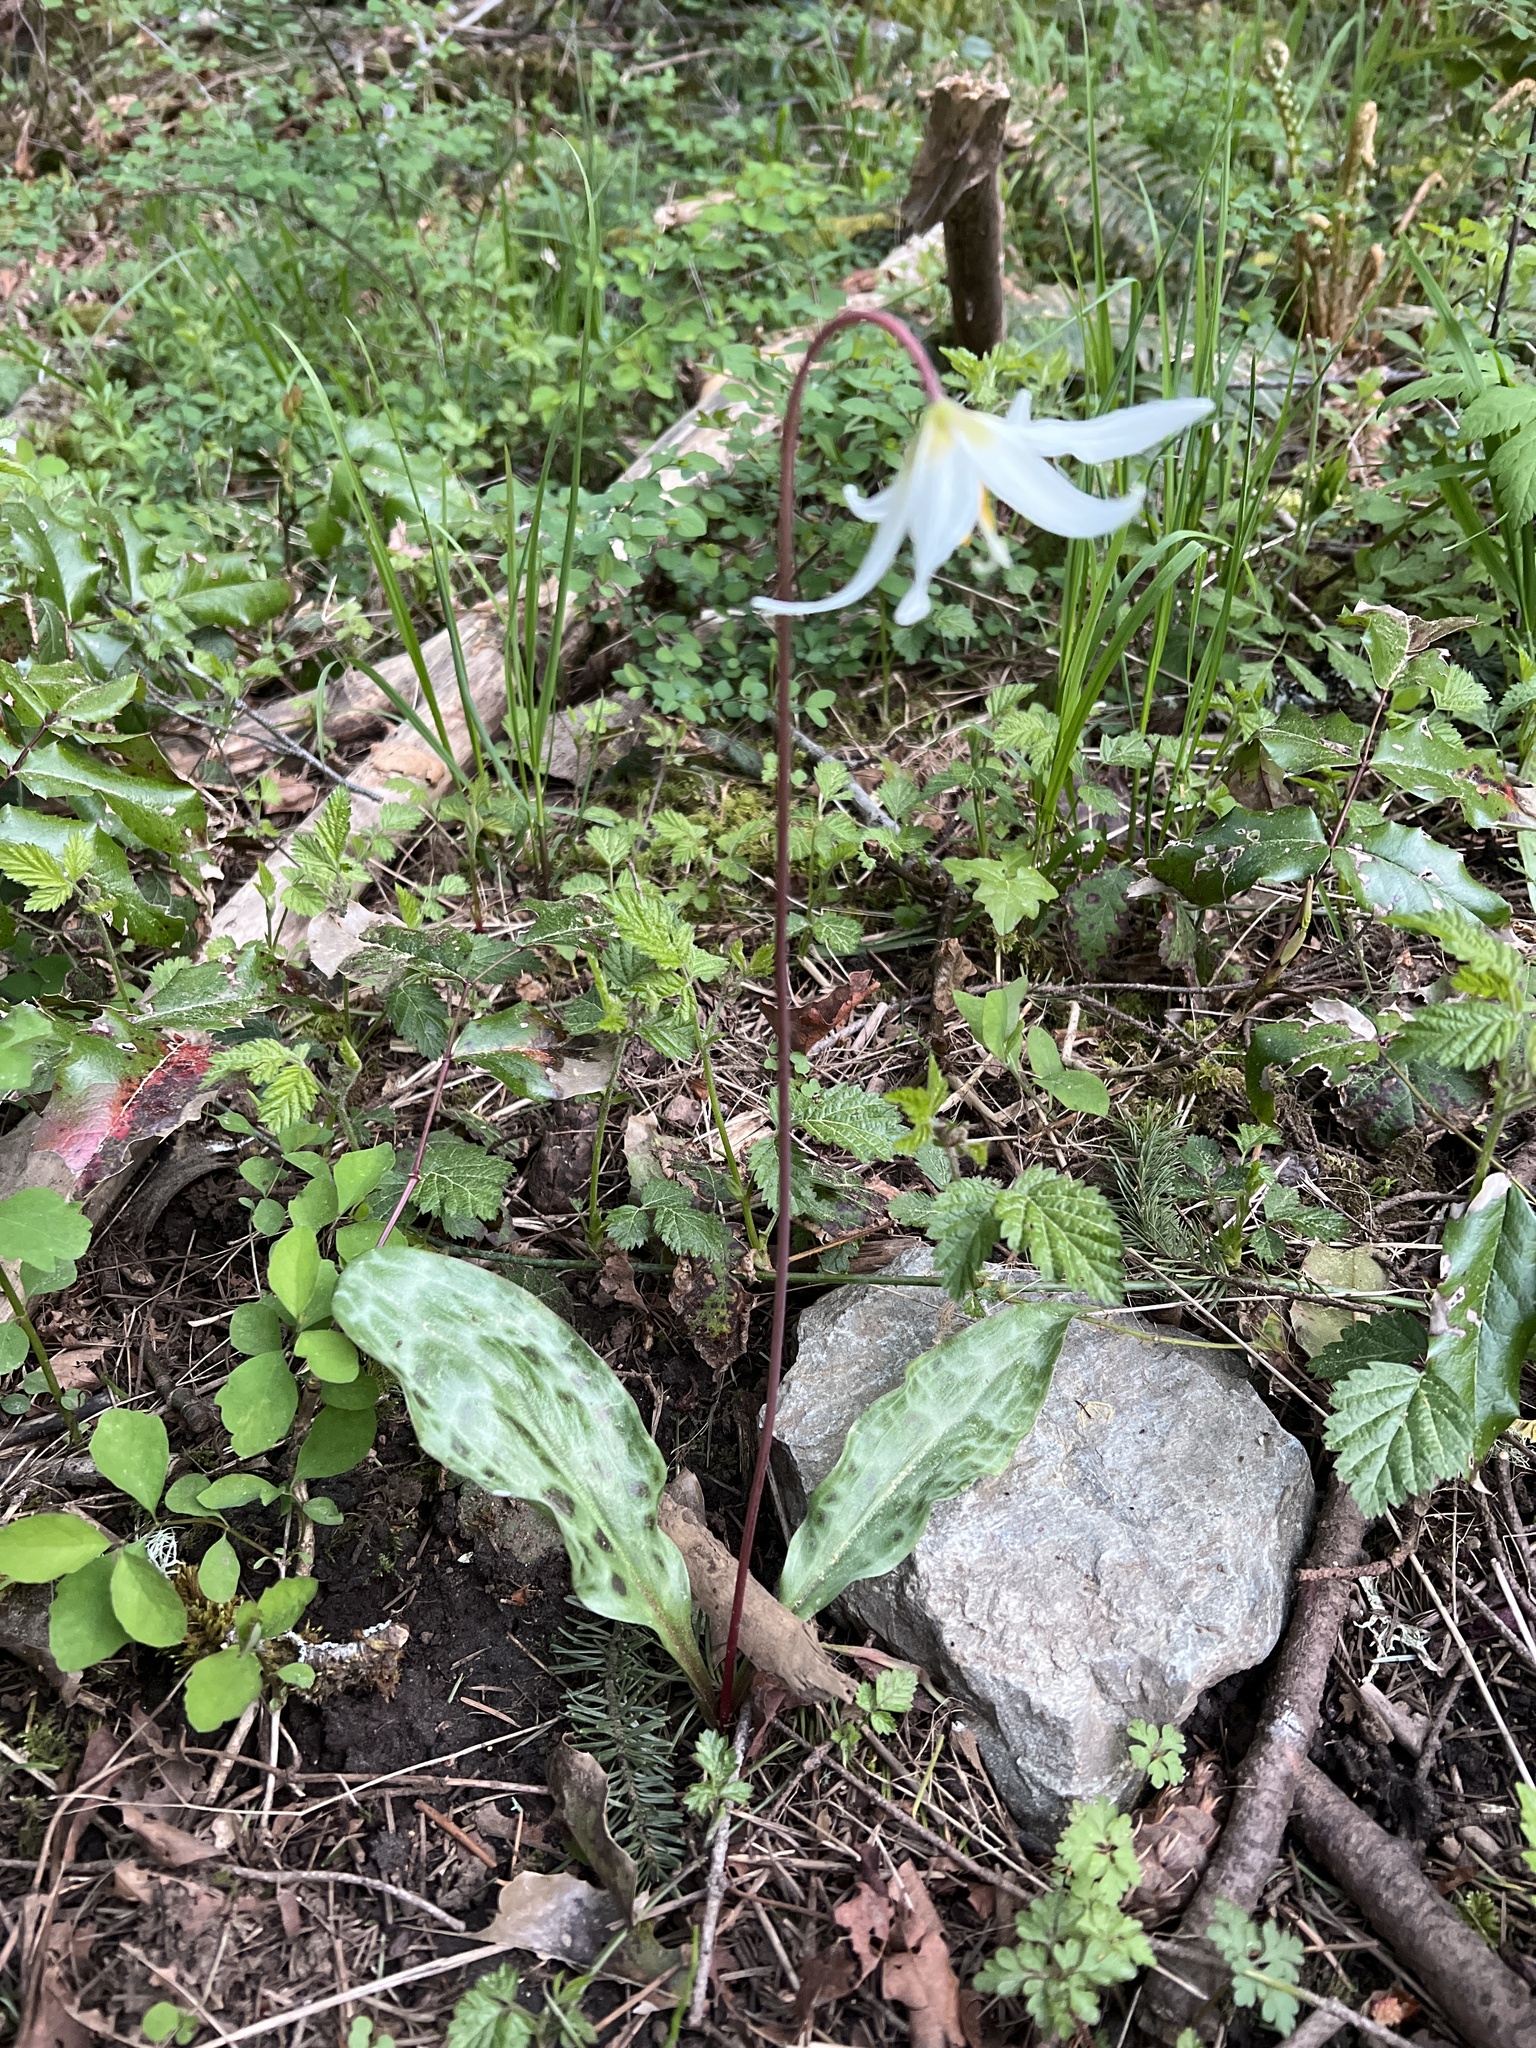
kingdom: Plantae
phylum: Tracheophyta
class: Liliopsida
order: Liliales
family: Liliaceae
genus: Erythronium
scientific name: Erythronium oregonum
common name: Giant adder's-tongue
